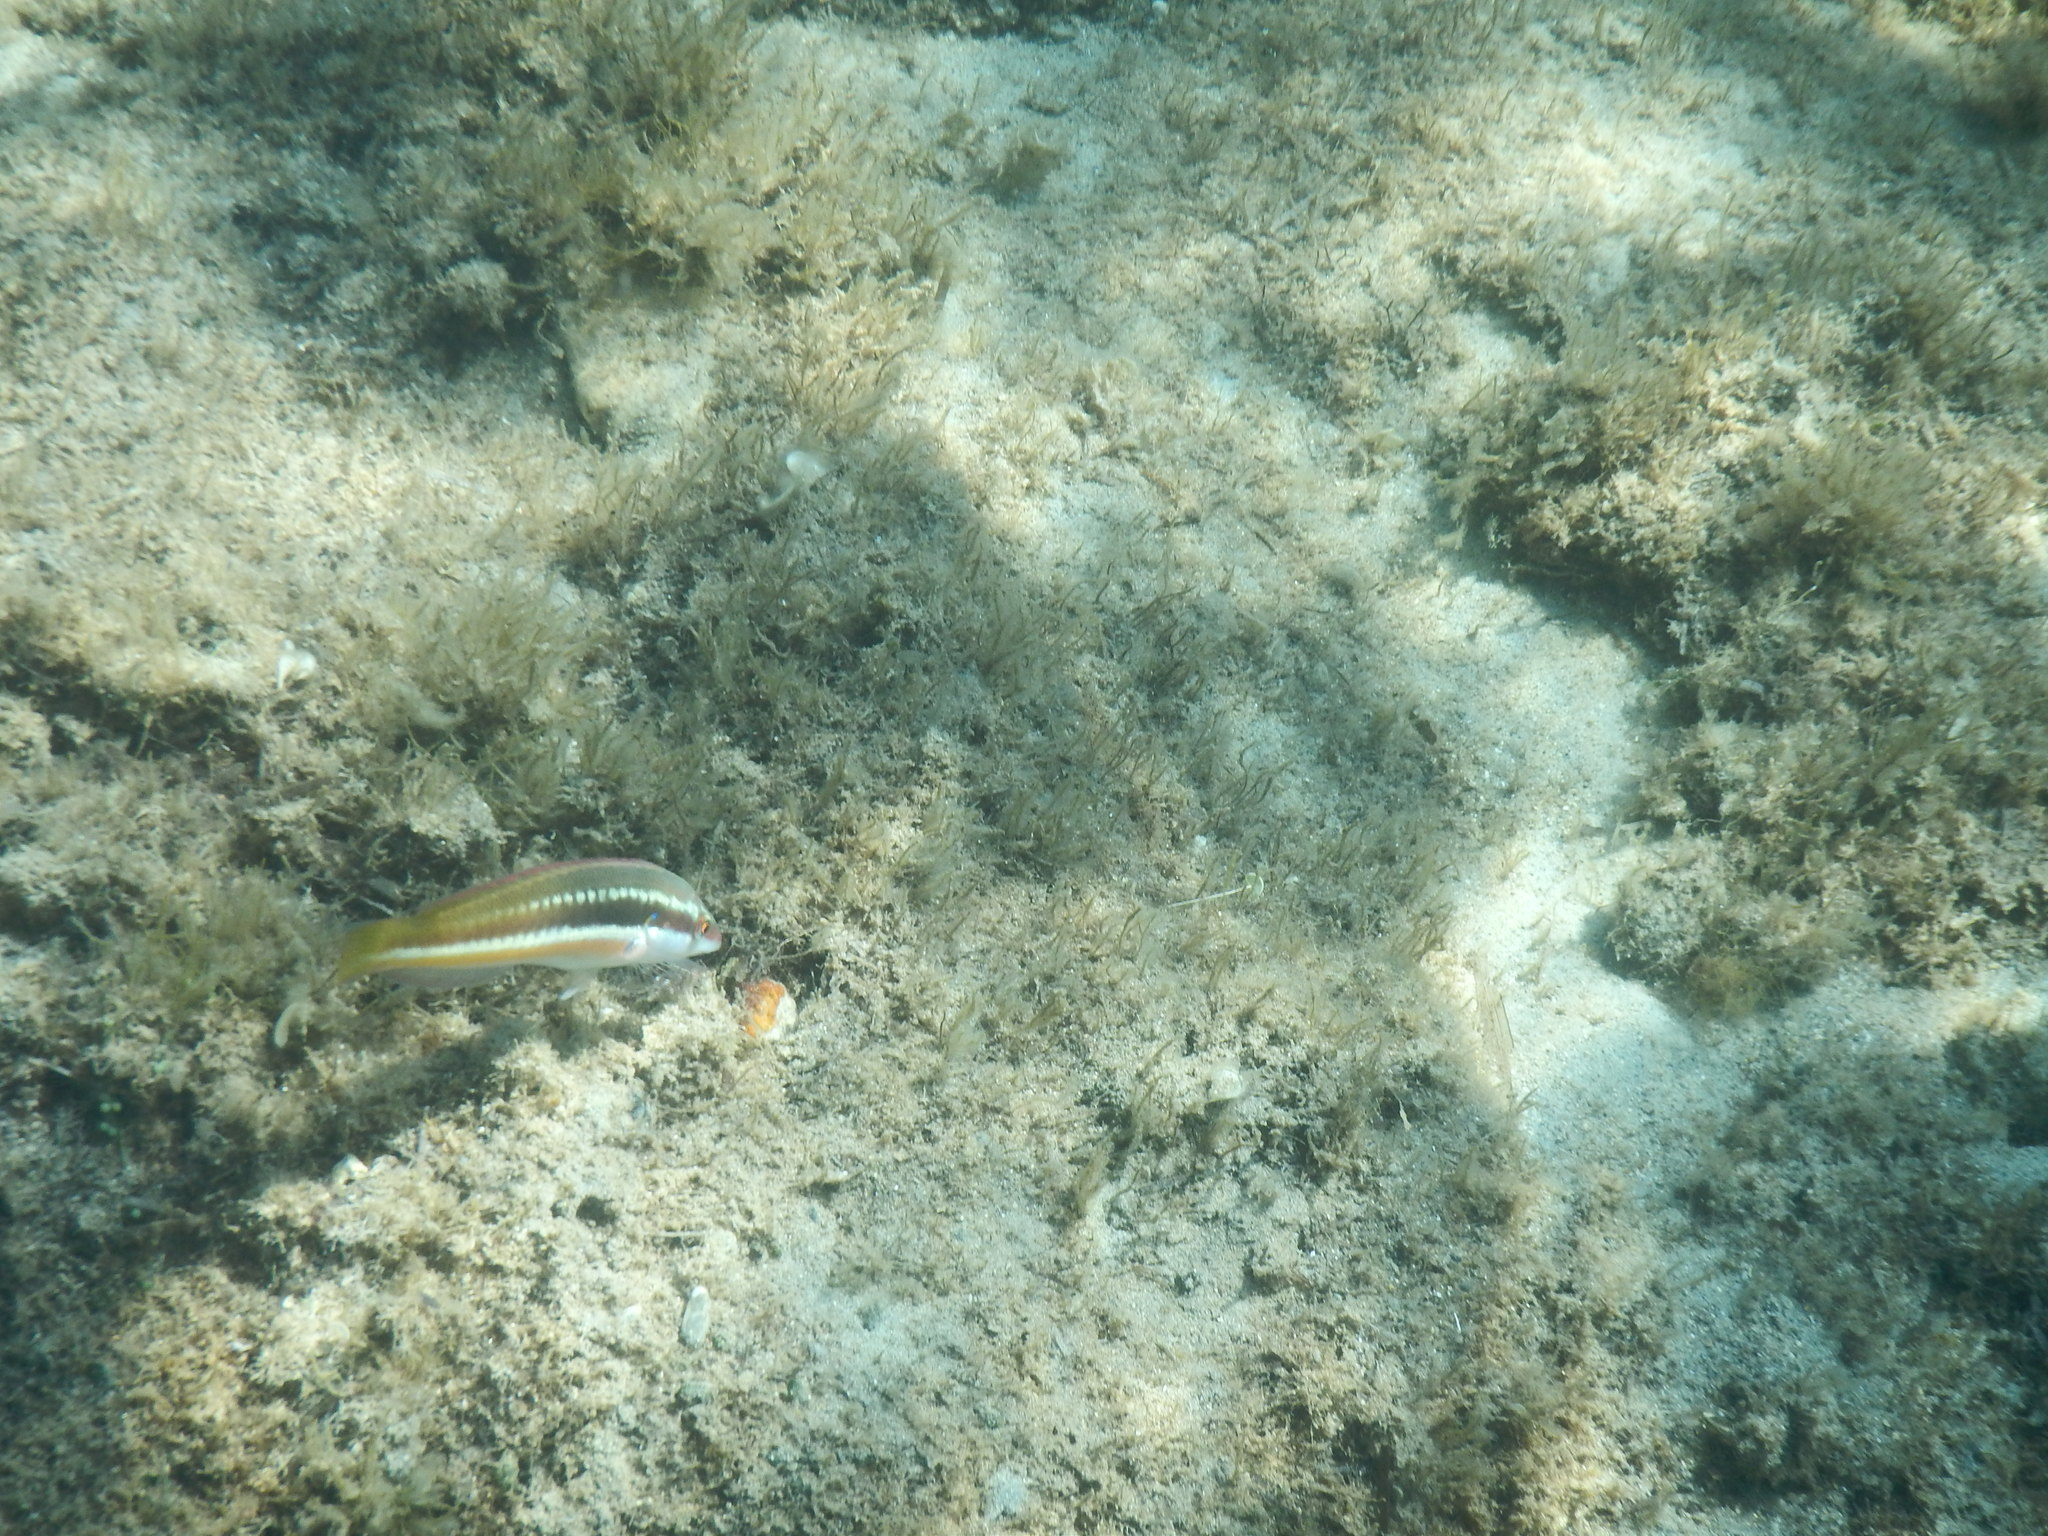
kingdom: Animalia
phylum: Chordata
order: Perciformes
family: Labridae
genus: Coris
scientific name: Coris julis
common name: Rainbow wrasse
